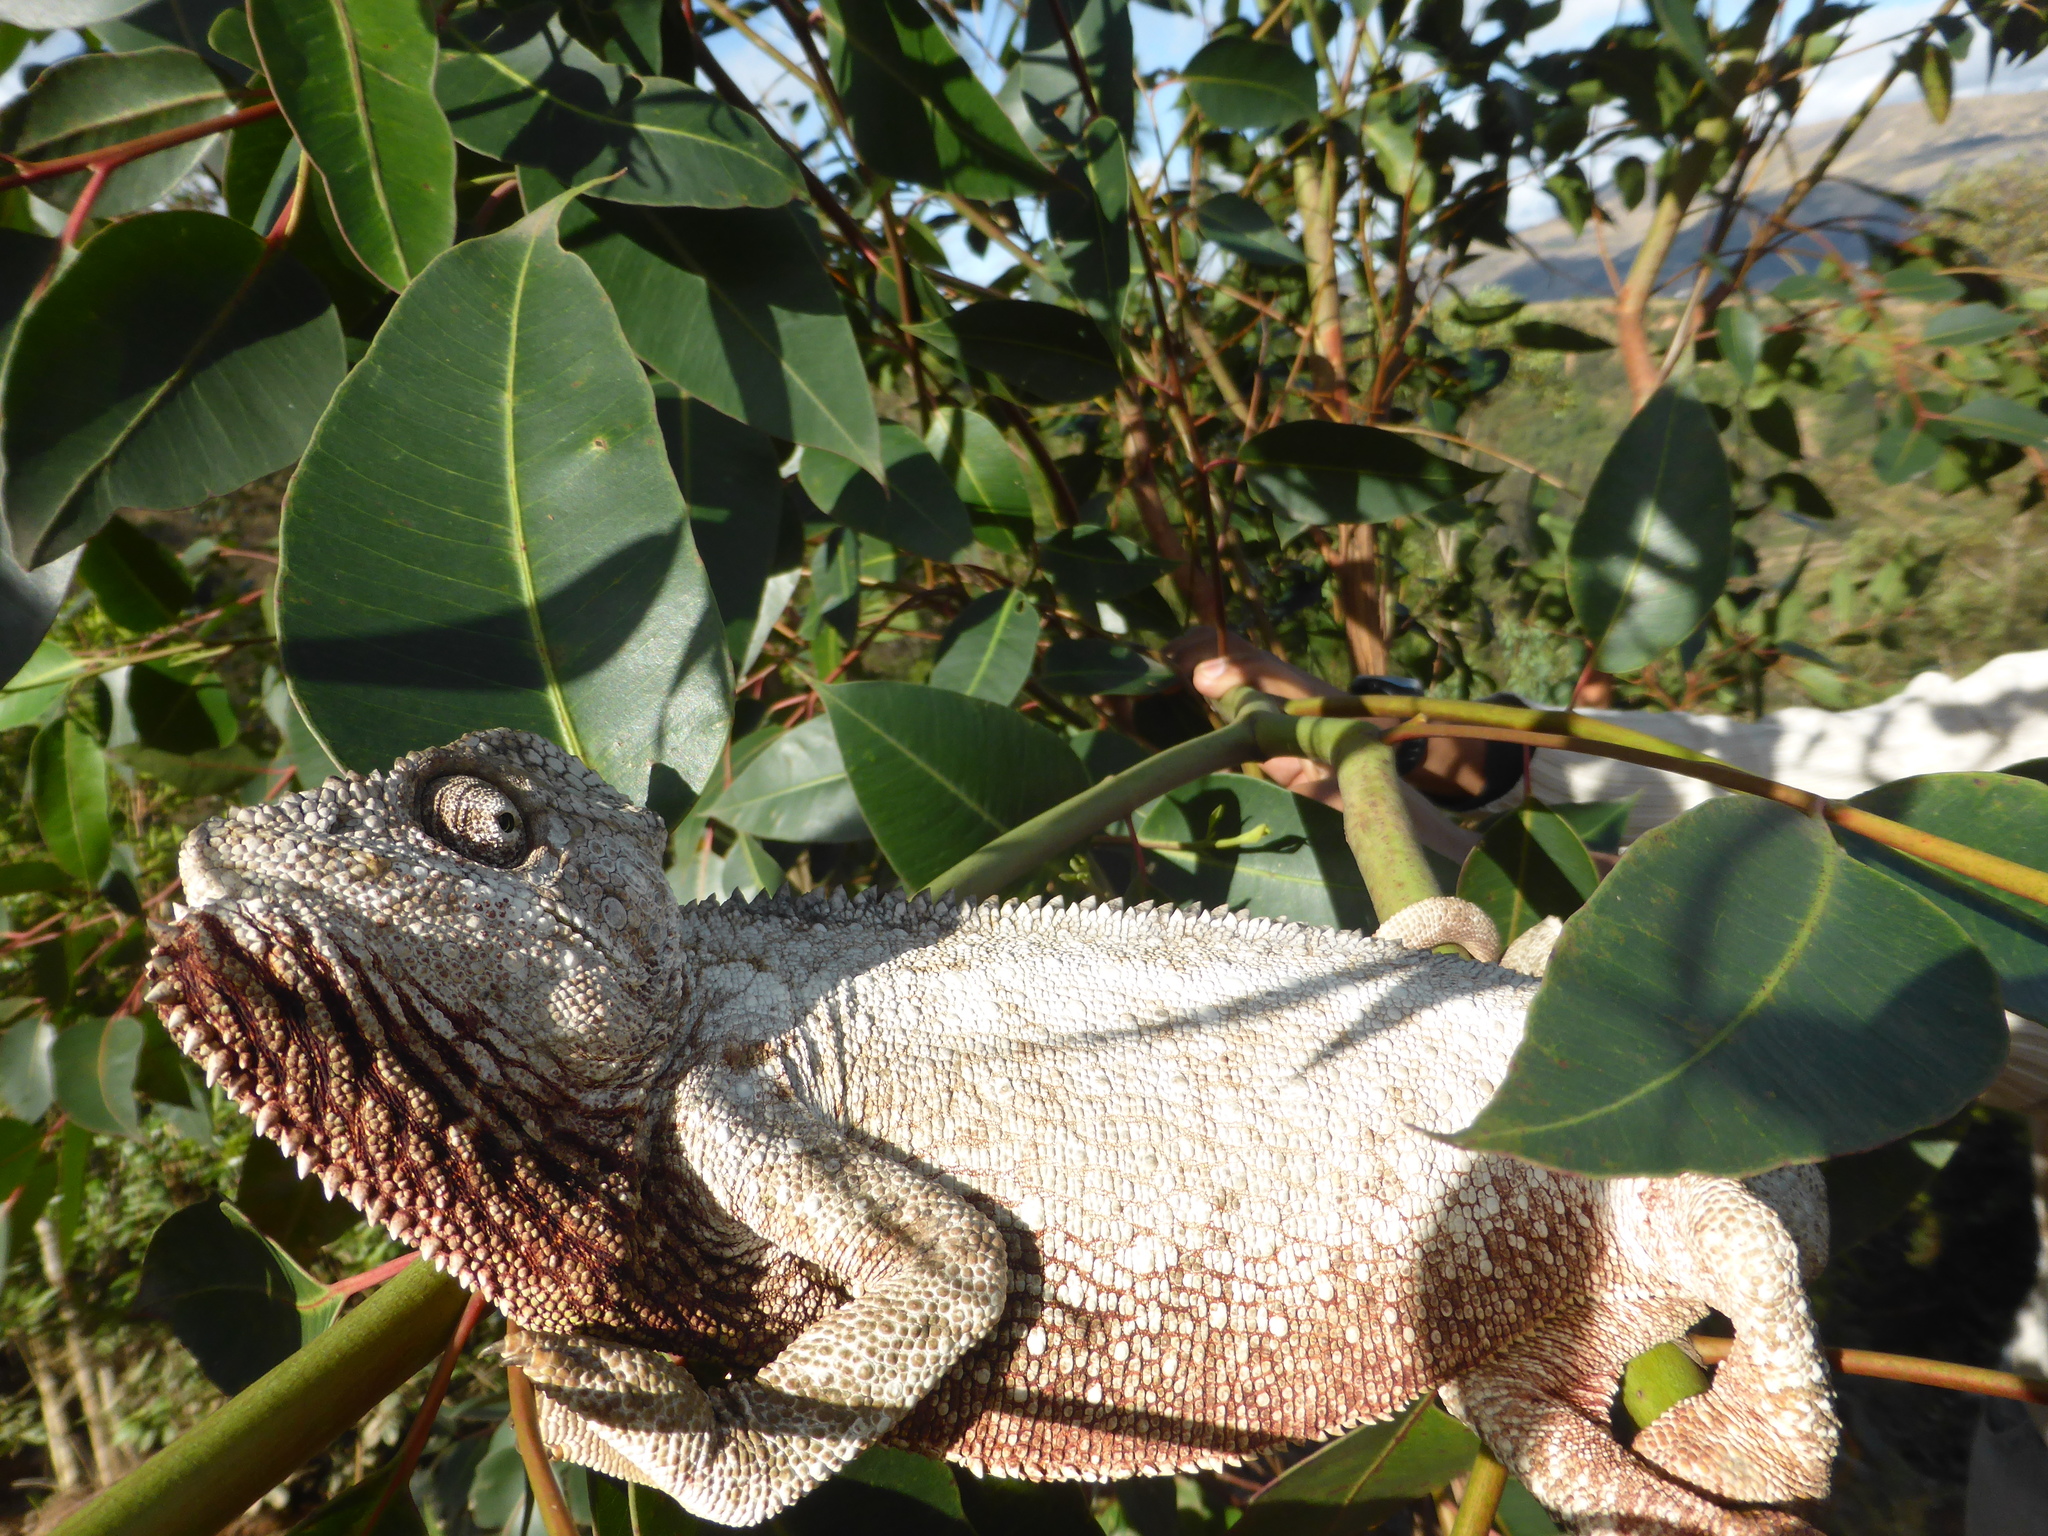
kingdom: Animalia
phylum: Chordata
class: Squamata
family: Chamaeleonidae
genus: Furcifer
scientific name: Furcifer oustaleti
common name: Oustalet's chameleon
